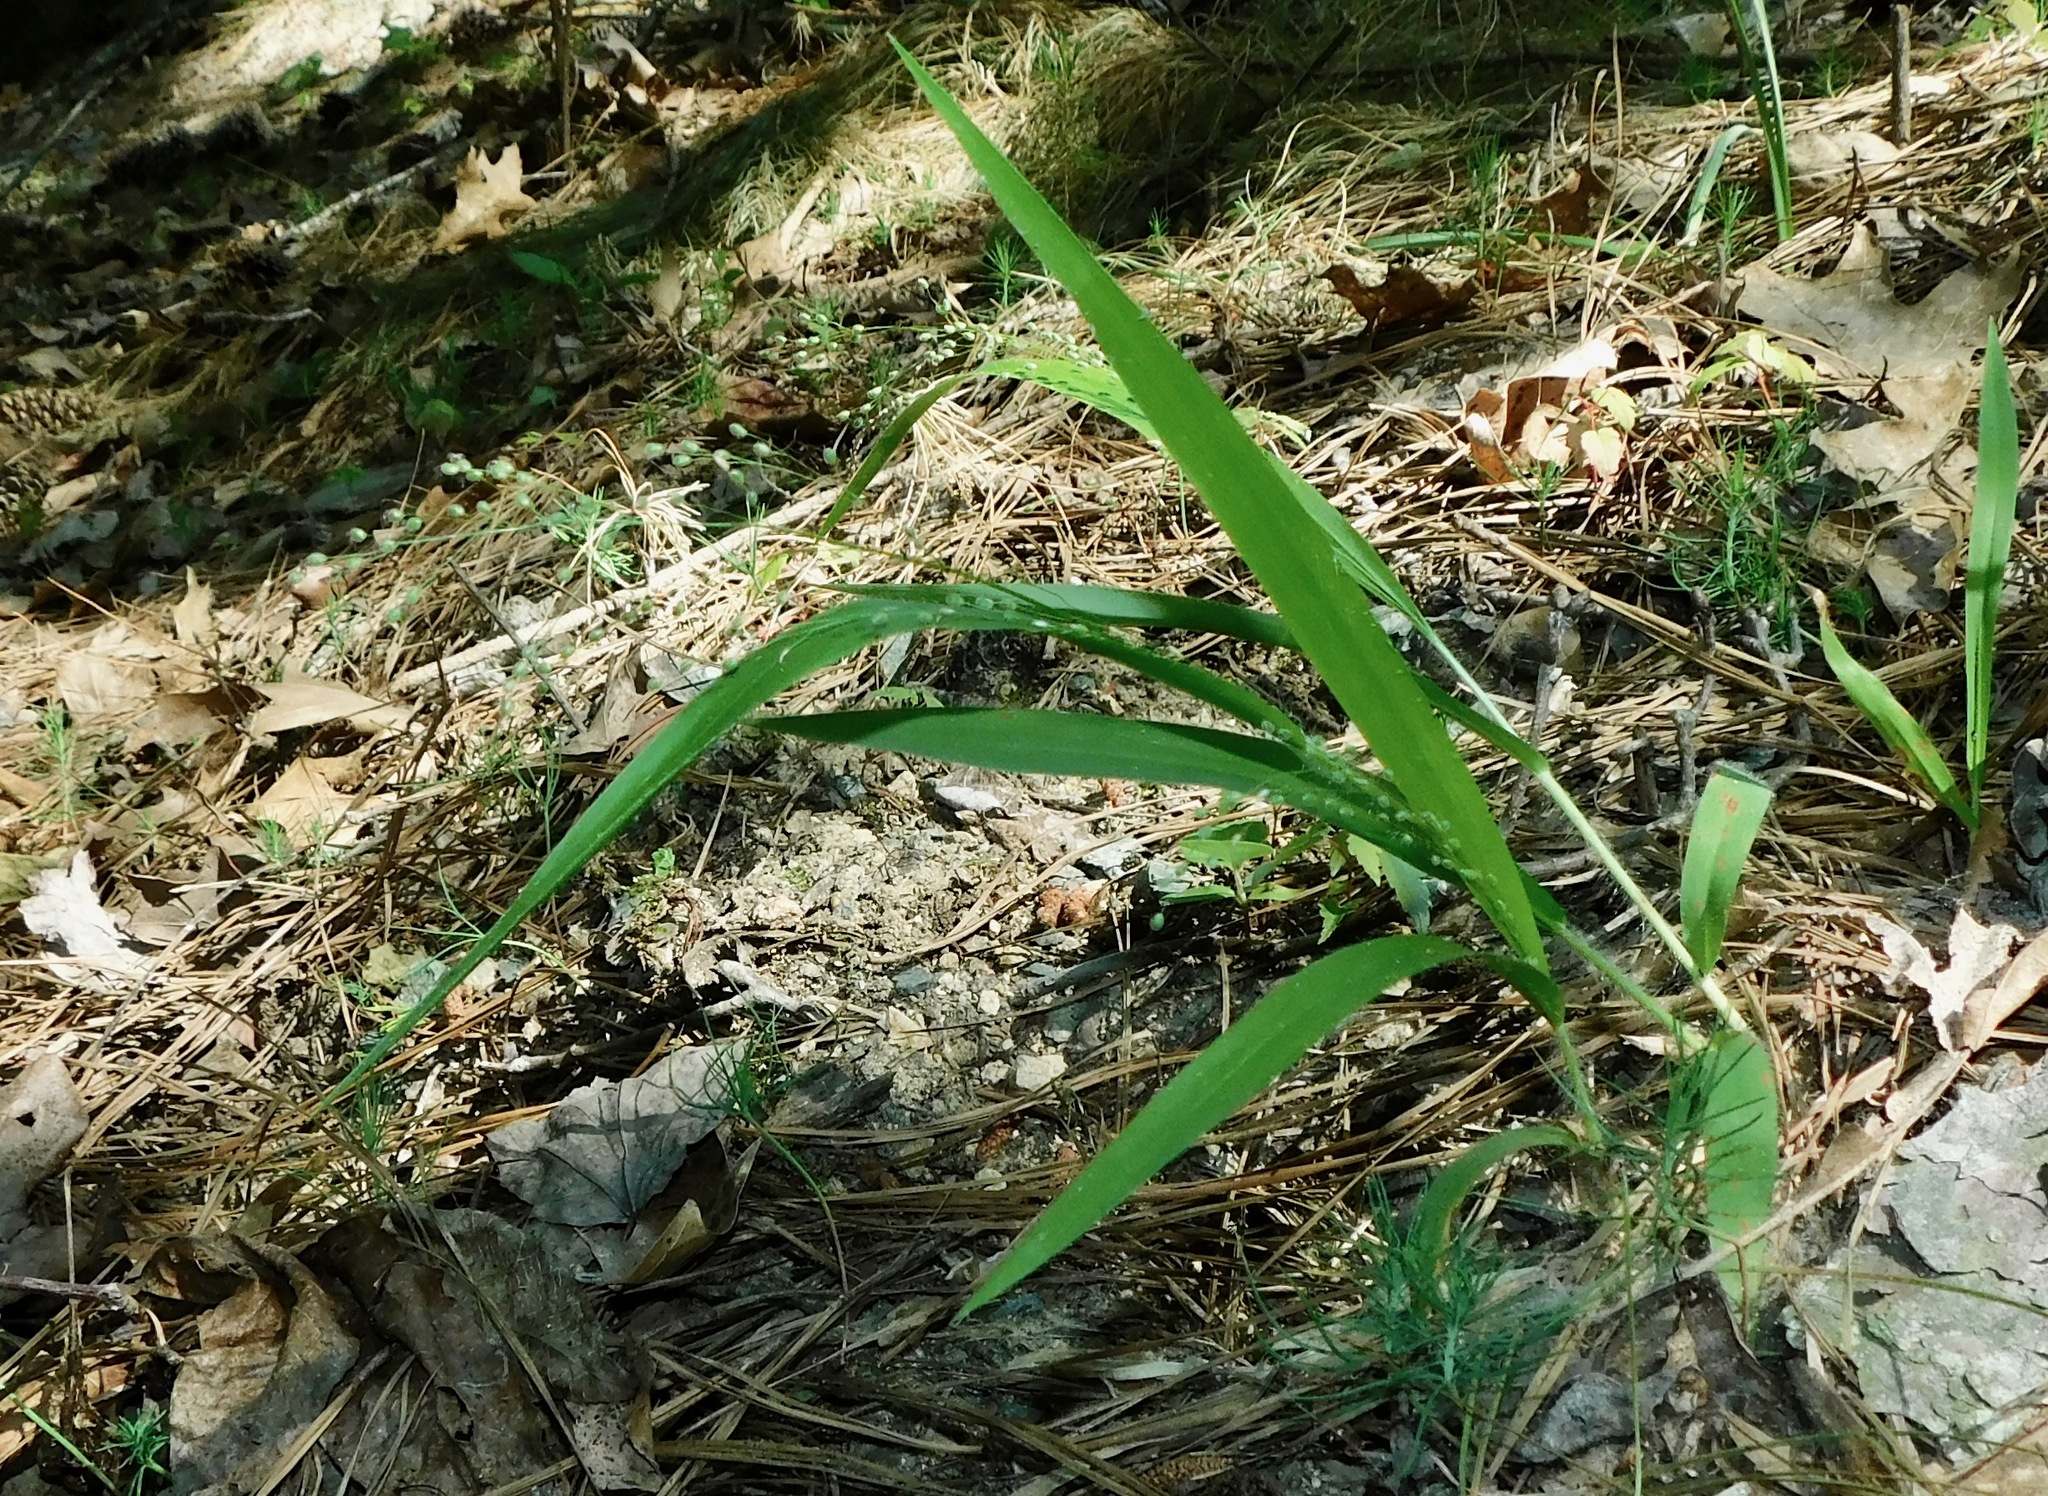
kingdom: Plantae
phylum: Tracheophyta
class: Liliopsida
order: Poales
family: Poaceae
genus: Dichanthelium
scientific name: Dichanthelium laxiflorum
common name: Soft-tuft panic grass
